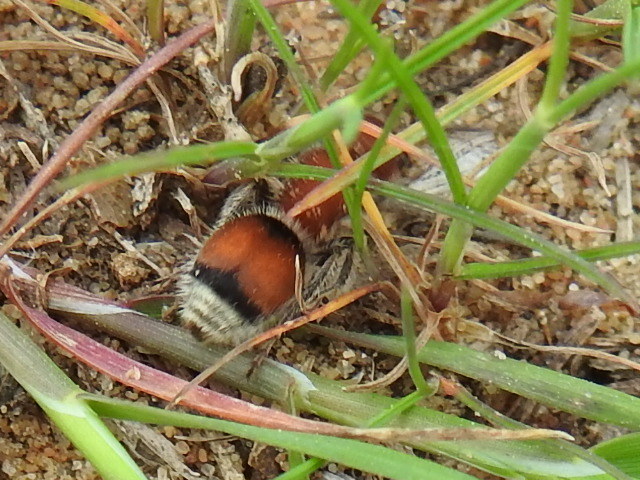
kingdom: Animalia
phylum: Arthropoda
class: Insecta
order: Hymenoptera
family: Mutillidae
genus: Pseudomethoca
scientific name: Pseudomethoca
